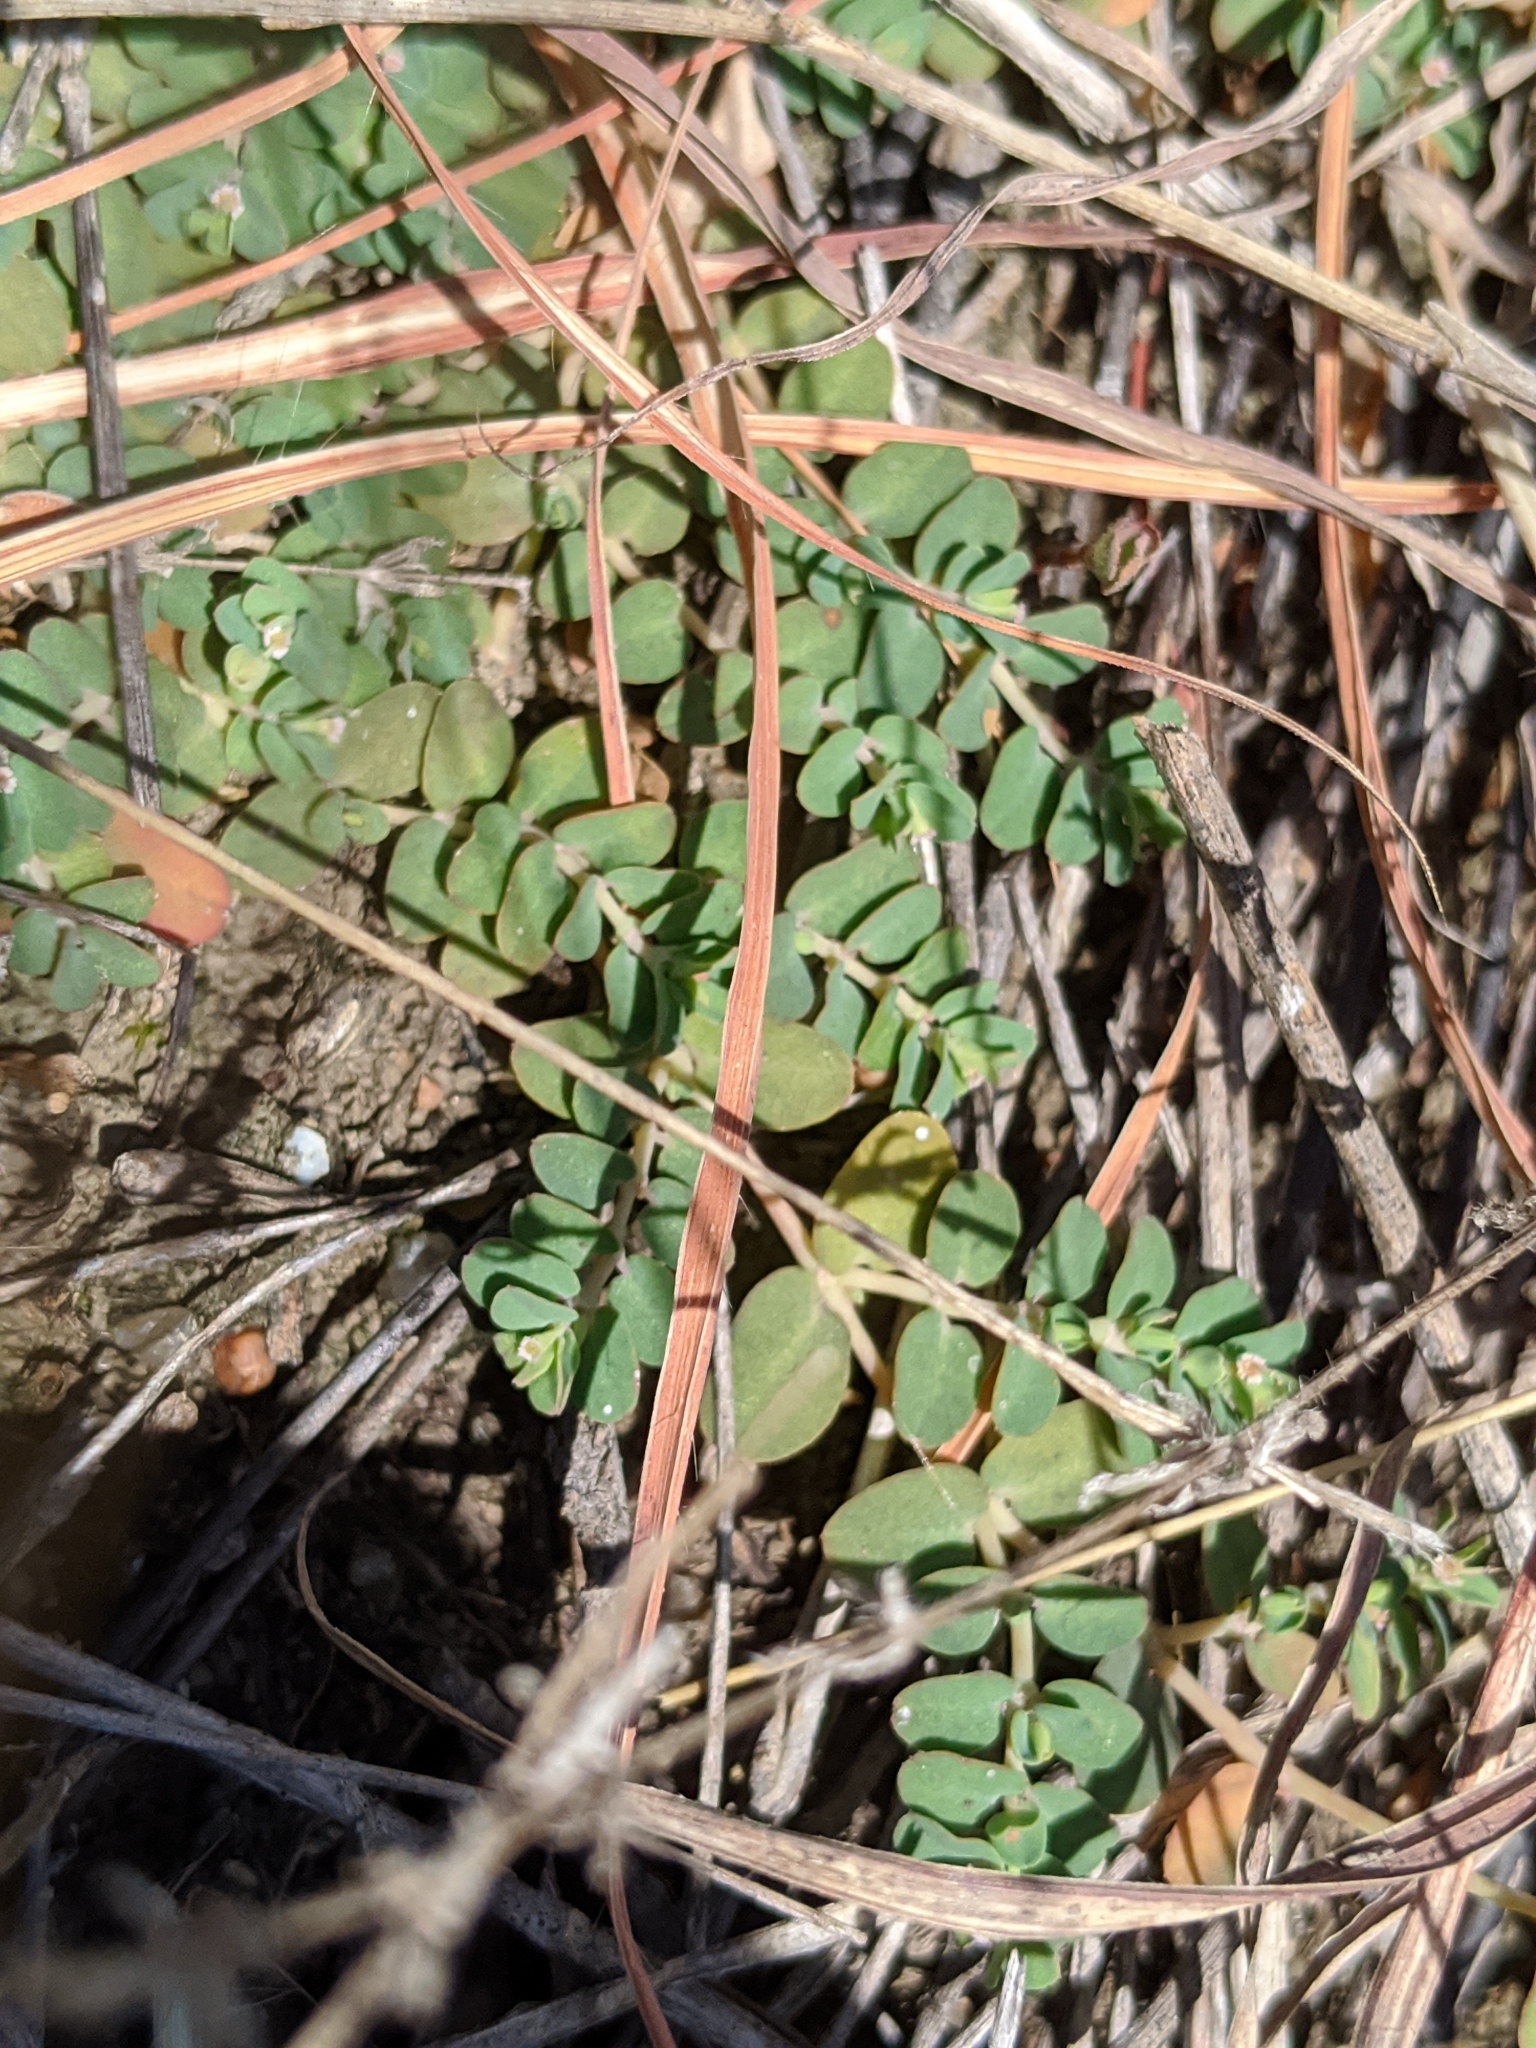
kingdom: Plantae
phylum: Tracheophyta
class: Magnoliopsida
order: Malpighiales
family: Euphorbiaceae
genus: Euphorbia
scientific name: Euphorbia serpens
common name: Matted sandmat
